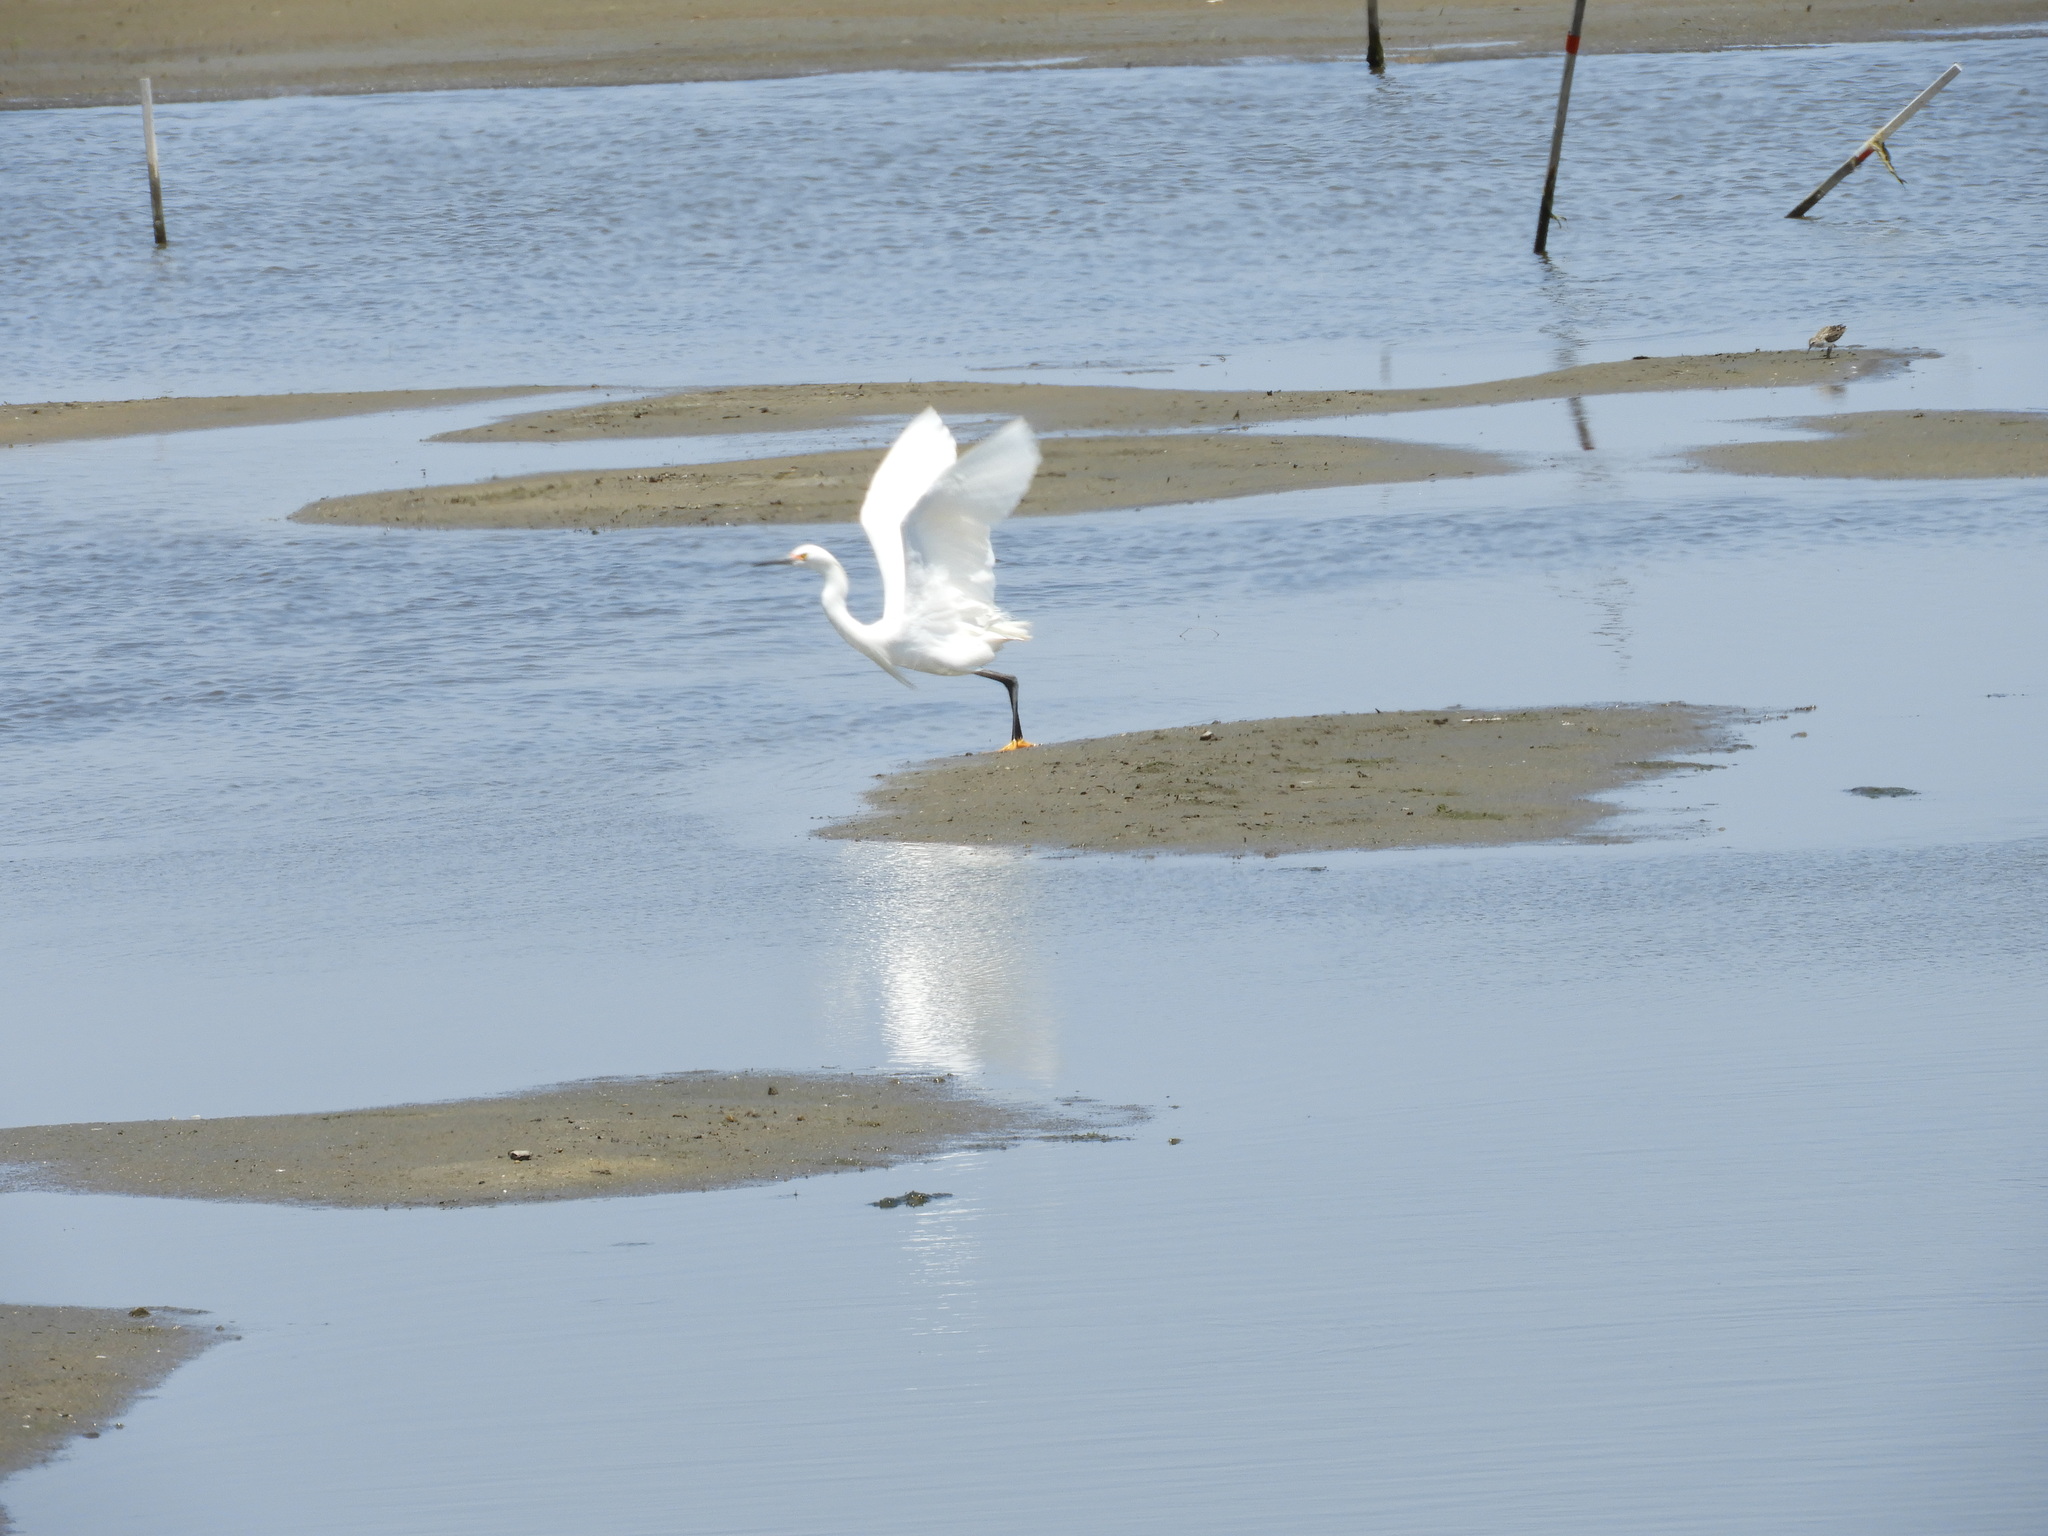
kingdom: Animalia
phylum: Chordata
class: Aves
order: Pelecaniformes
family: Ardeidae
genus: Egretta
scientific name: Egretta thula
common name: Snowy egret
